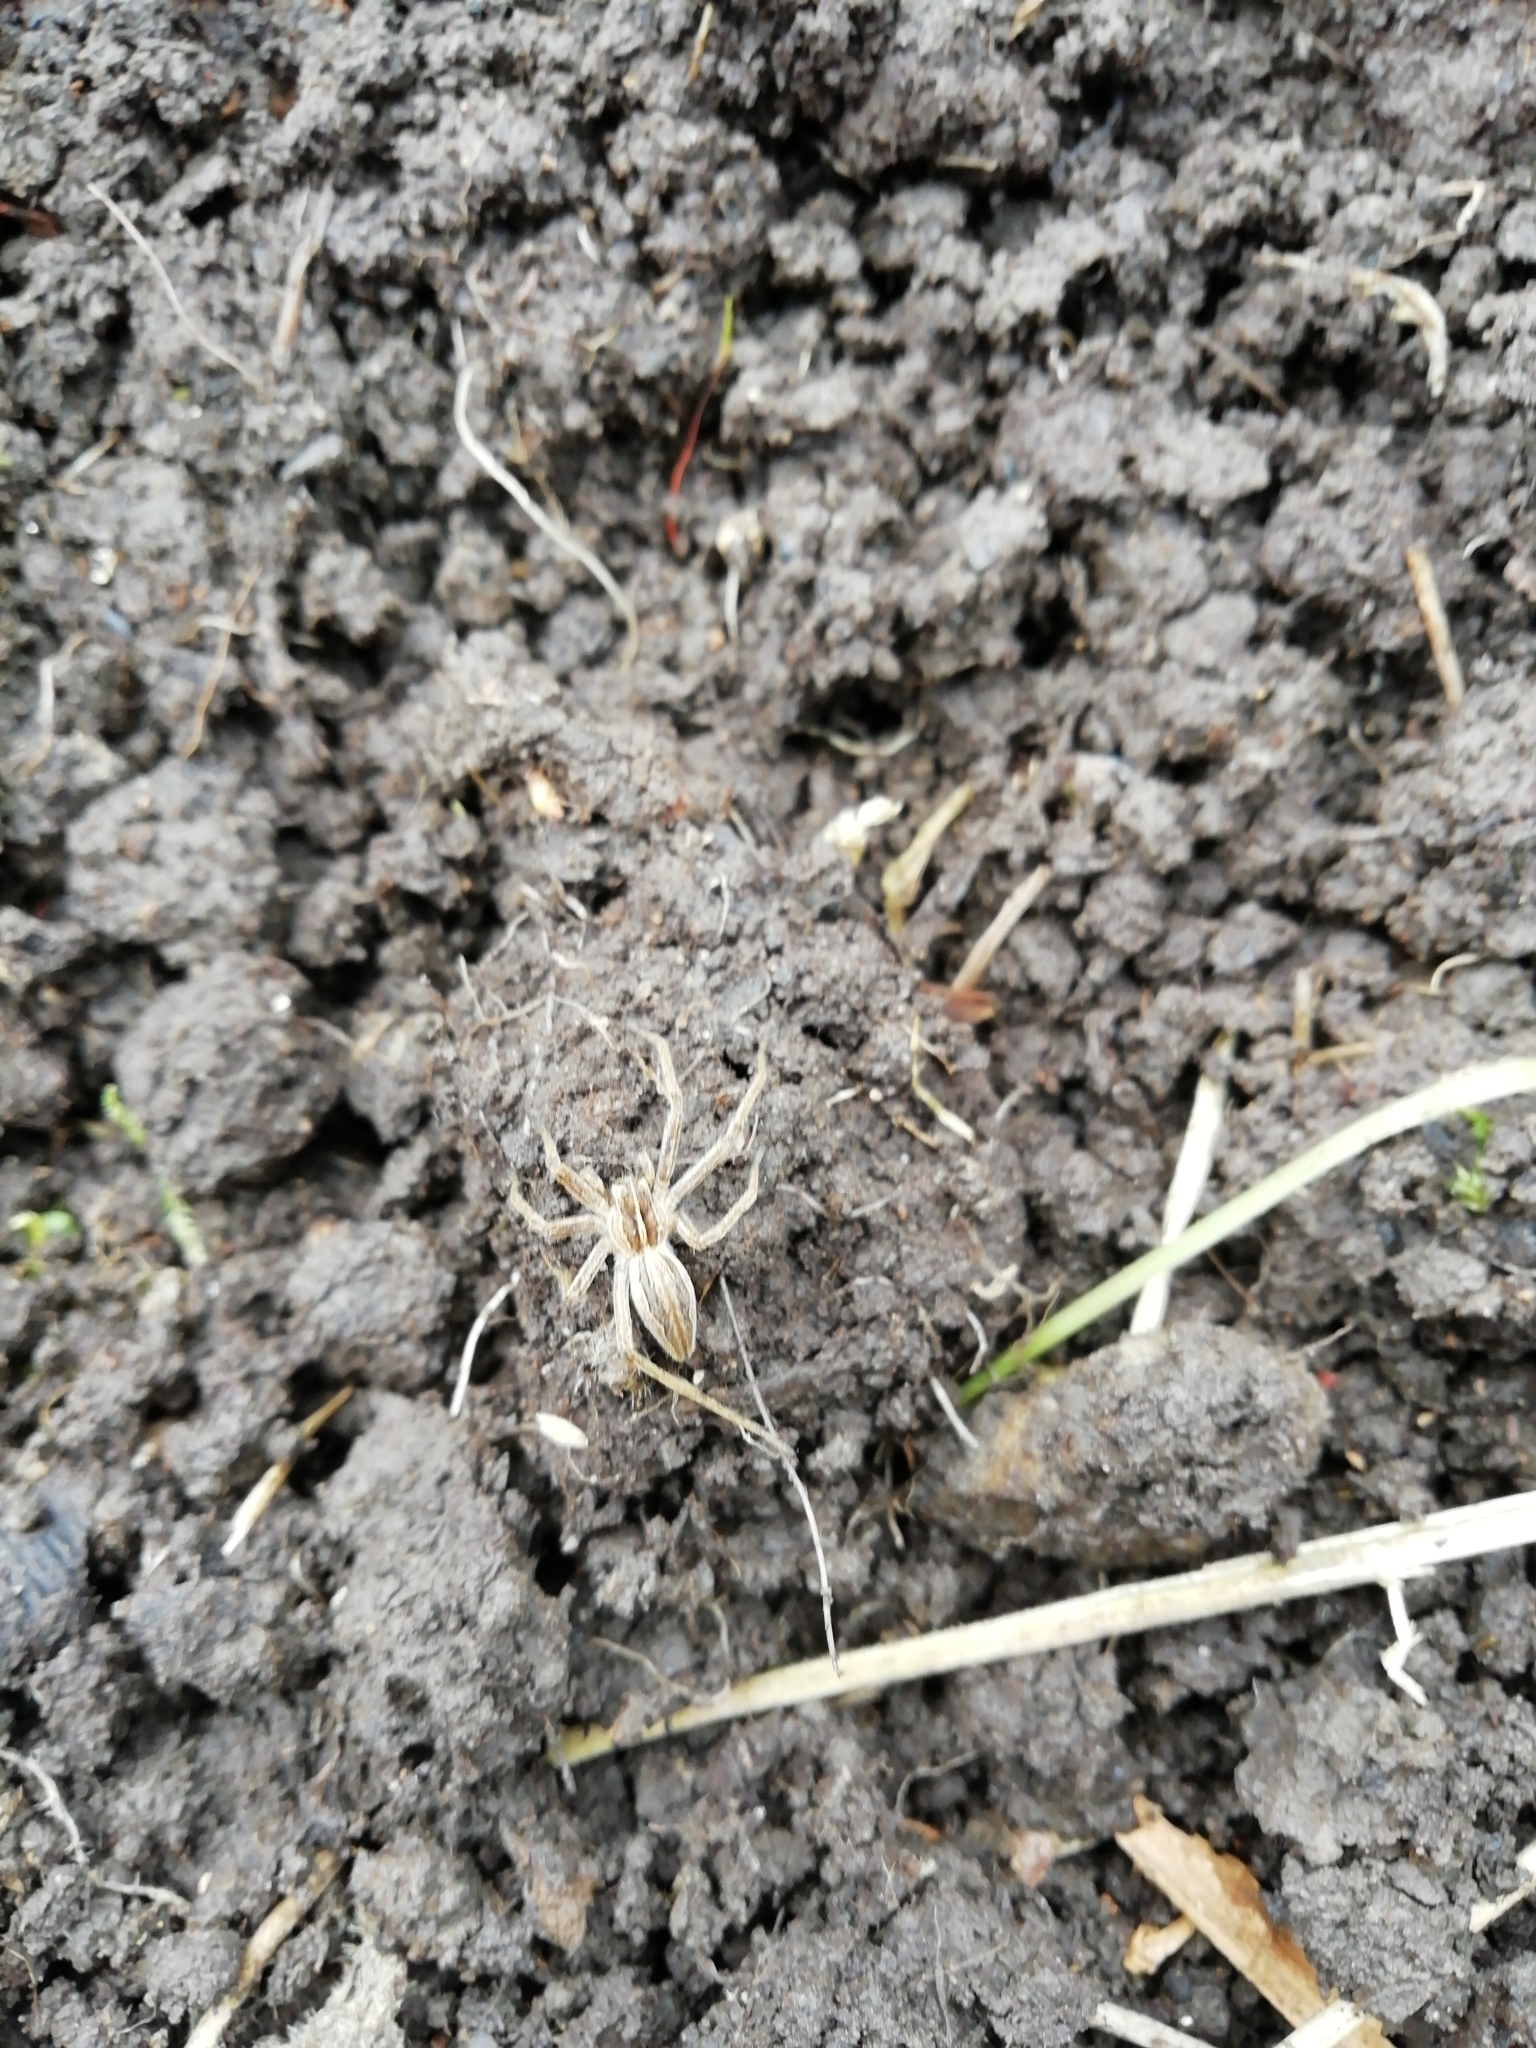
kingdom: Animalia
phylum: Arthropoda
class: Arachnida
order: Araneae
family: Pisauridae
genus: Pisaura
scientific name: Pisaura mirabilis
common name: Tent spider
